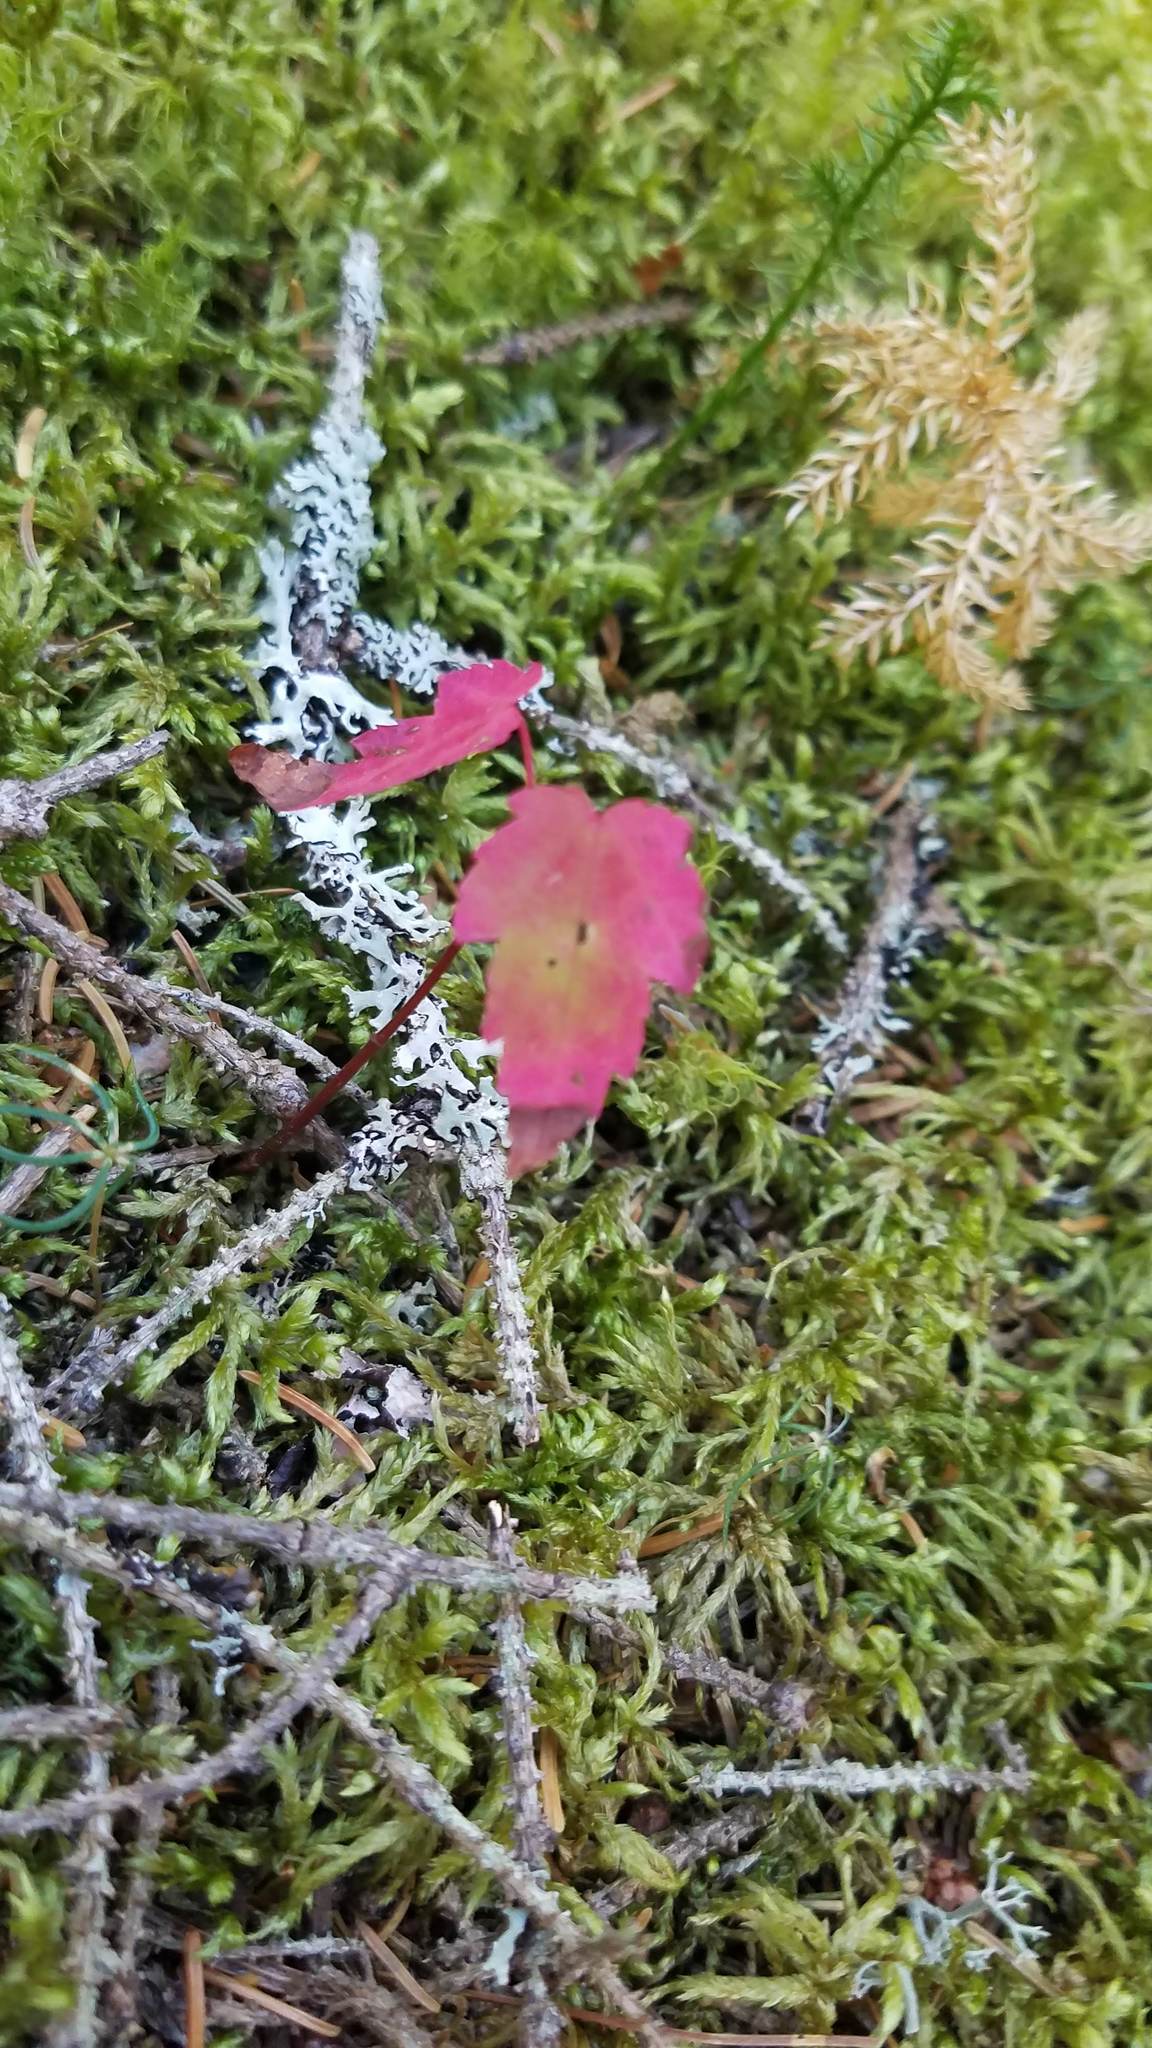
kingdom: Plantae
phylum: Tracheophyta
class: Magnoliopsida
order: Sapindales
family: Sapindaceae
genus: Acer
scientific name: Acer rubrum
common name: Red maple
